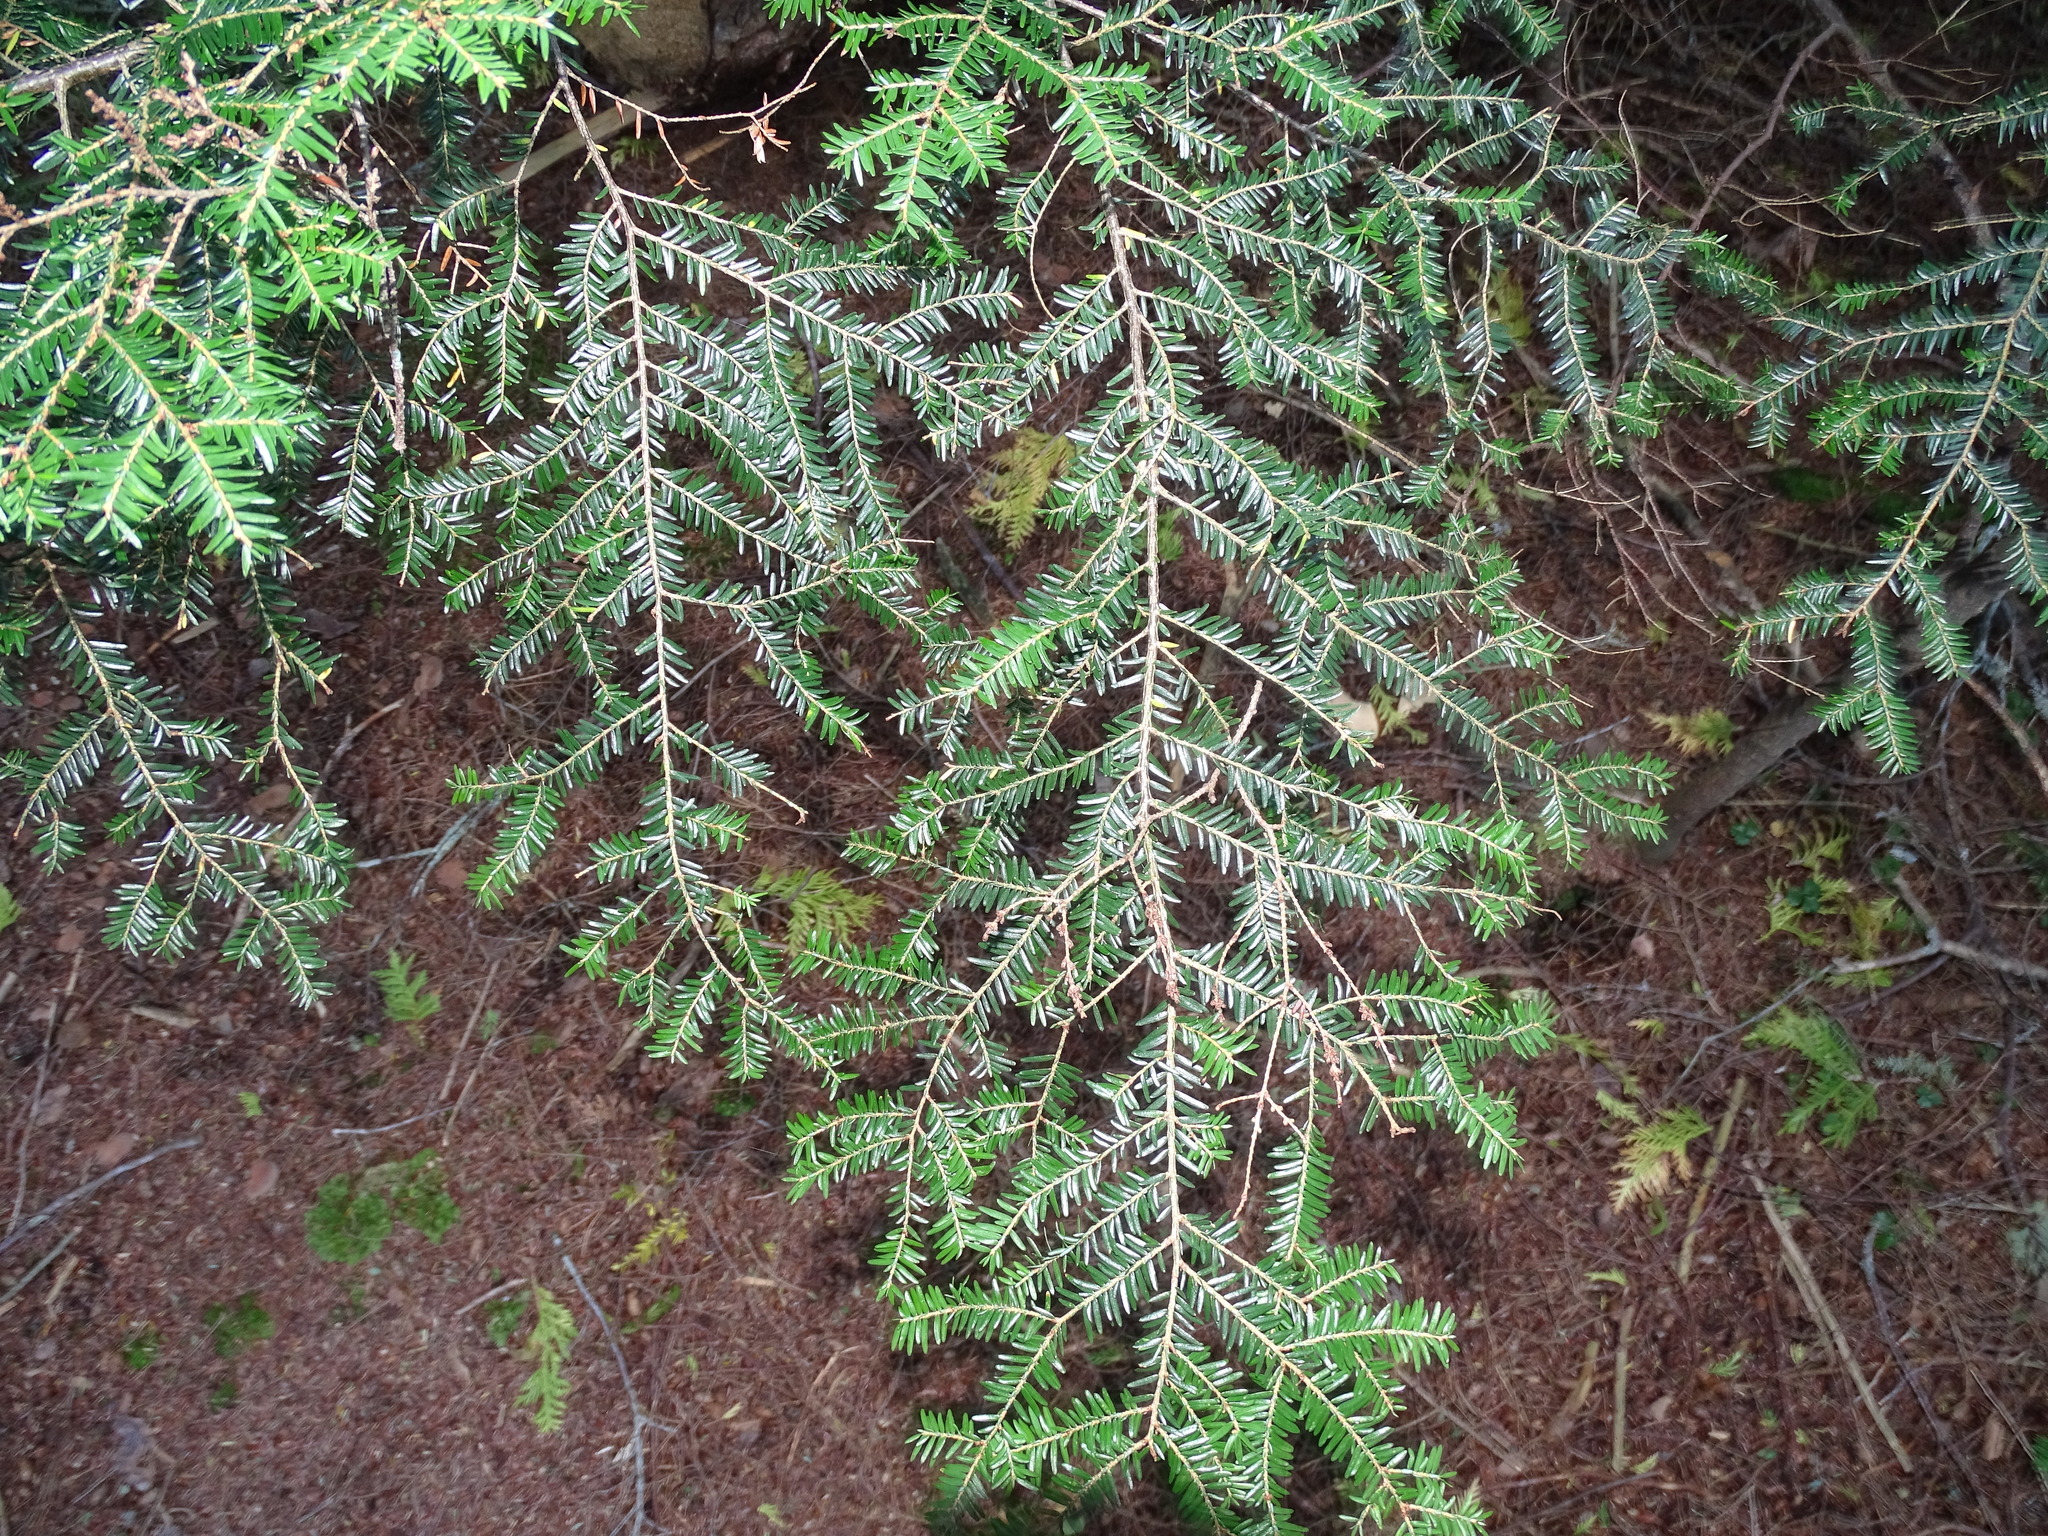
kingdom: Plantae
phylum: Tracheophyta
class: Pinopsida
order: Pinales
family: Pinaceae
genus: Tsuga
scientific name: Tsuga canadensis
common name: Eastern hemlock
